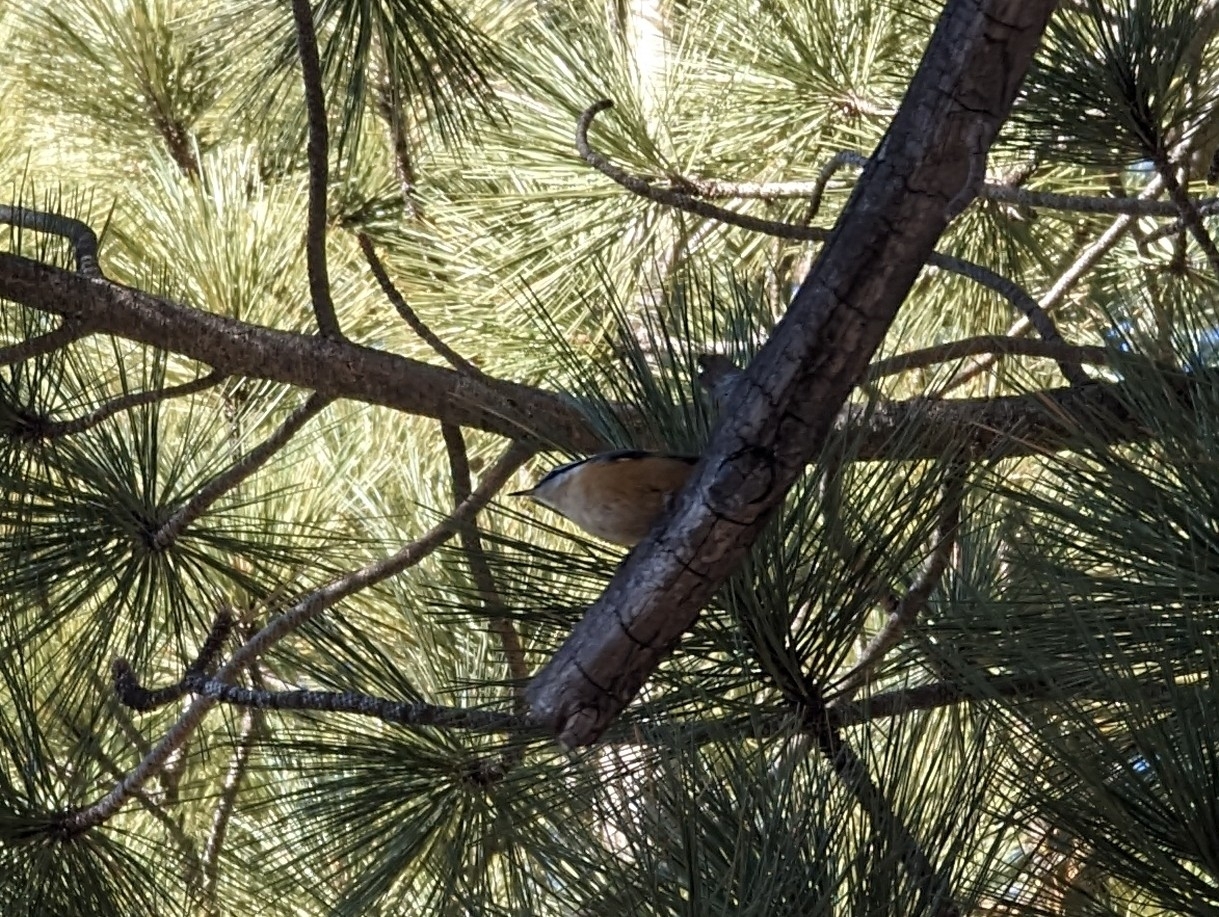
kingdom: Animalia
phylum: Chordata
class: Aves
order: Passeriformes
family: Sittidae
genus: Sitta
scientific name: Sitta canadensis
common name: Red-breasted nuthatch
